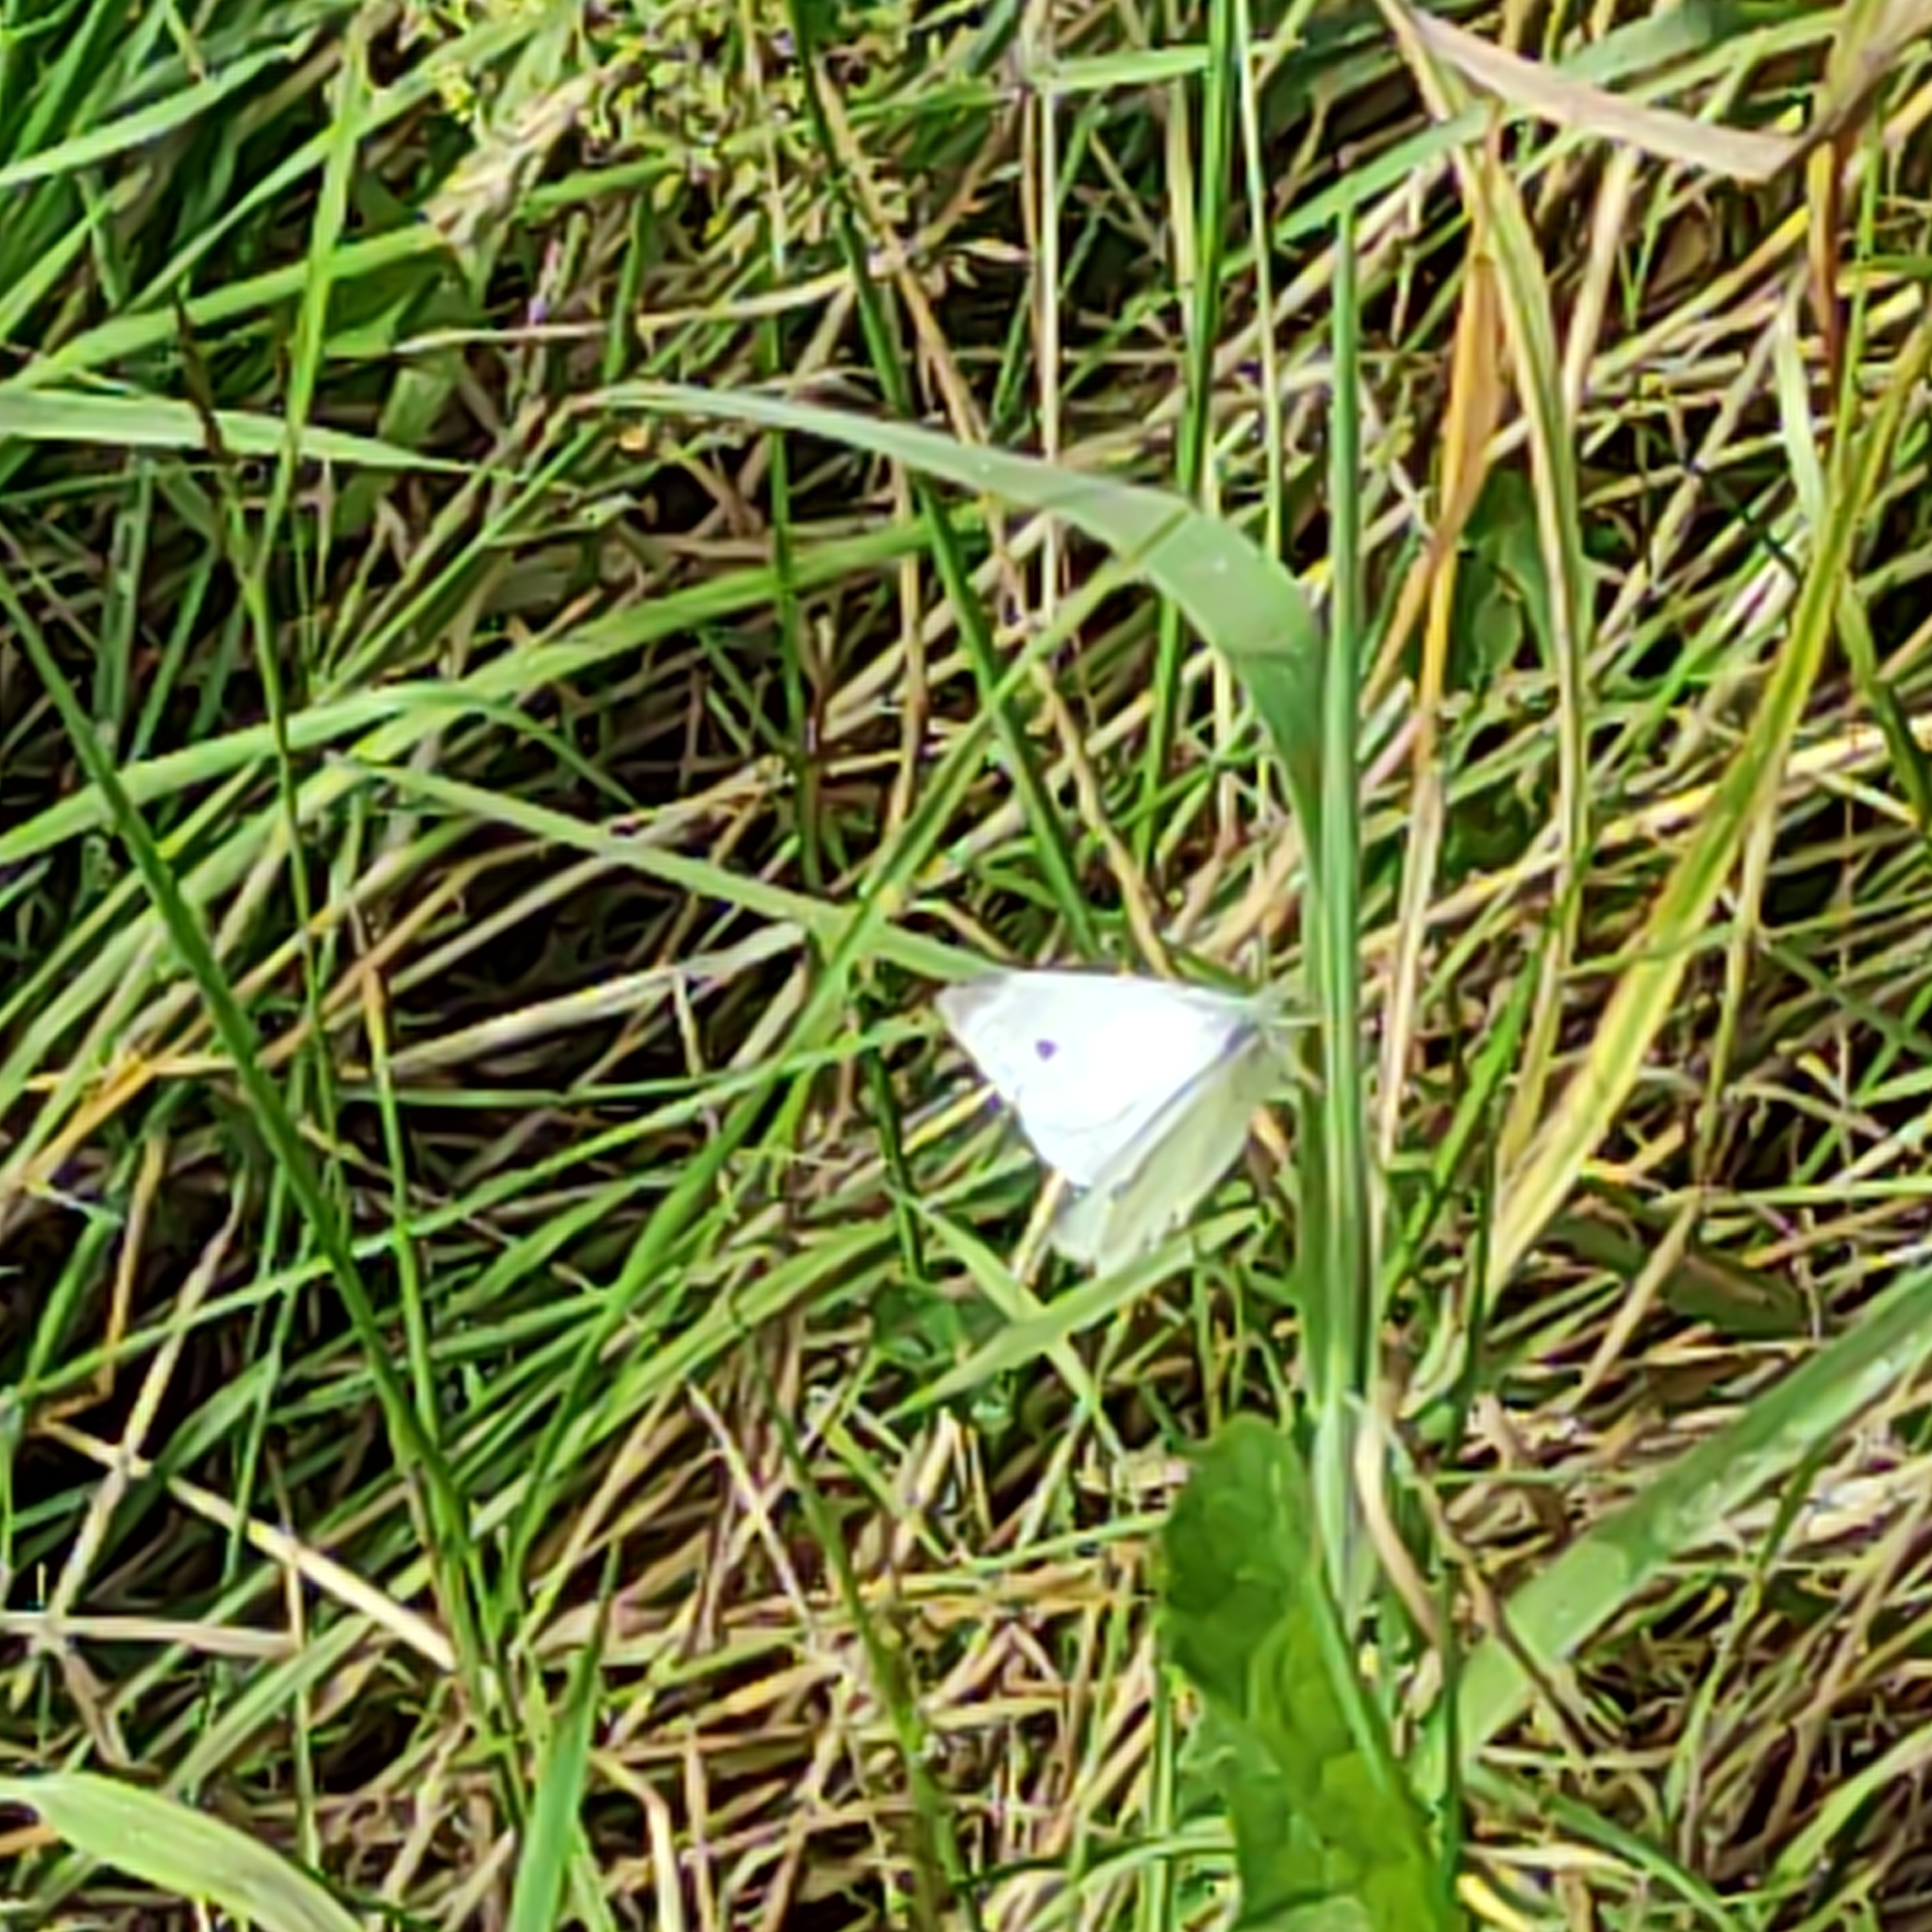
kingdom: Animalia
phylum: Arthropoda
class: Insecta
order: Lepidoptera
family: Pieridae
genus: Pieris
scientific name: Pieris rapae
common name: Small white
